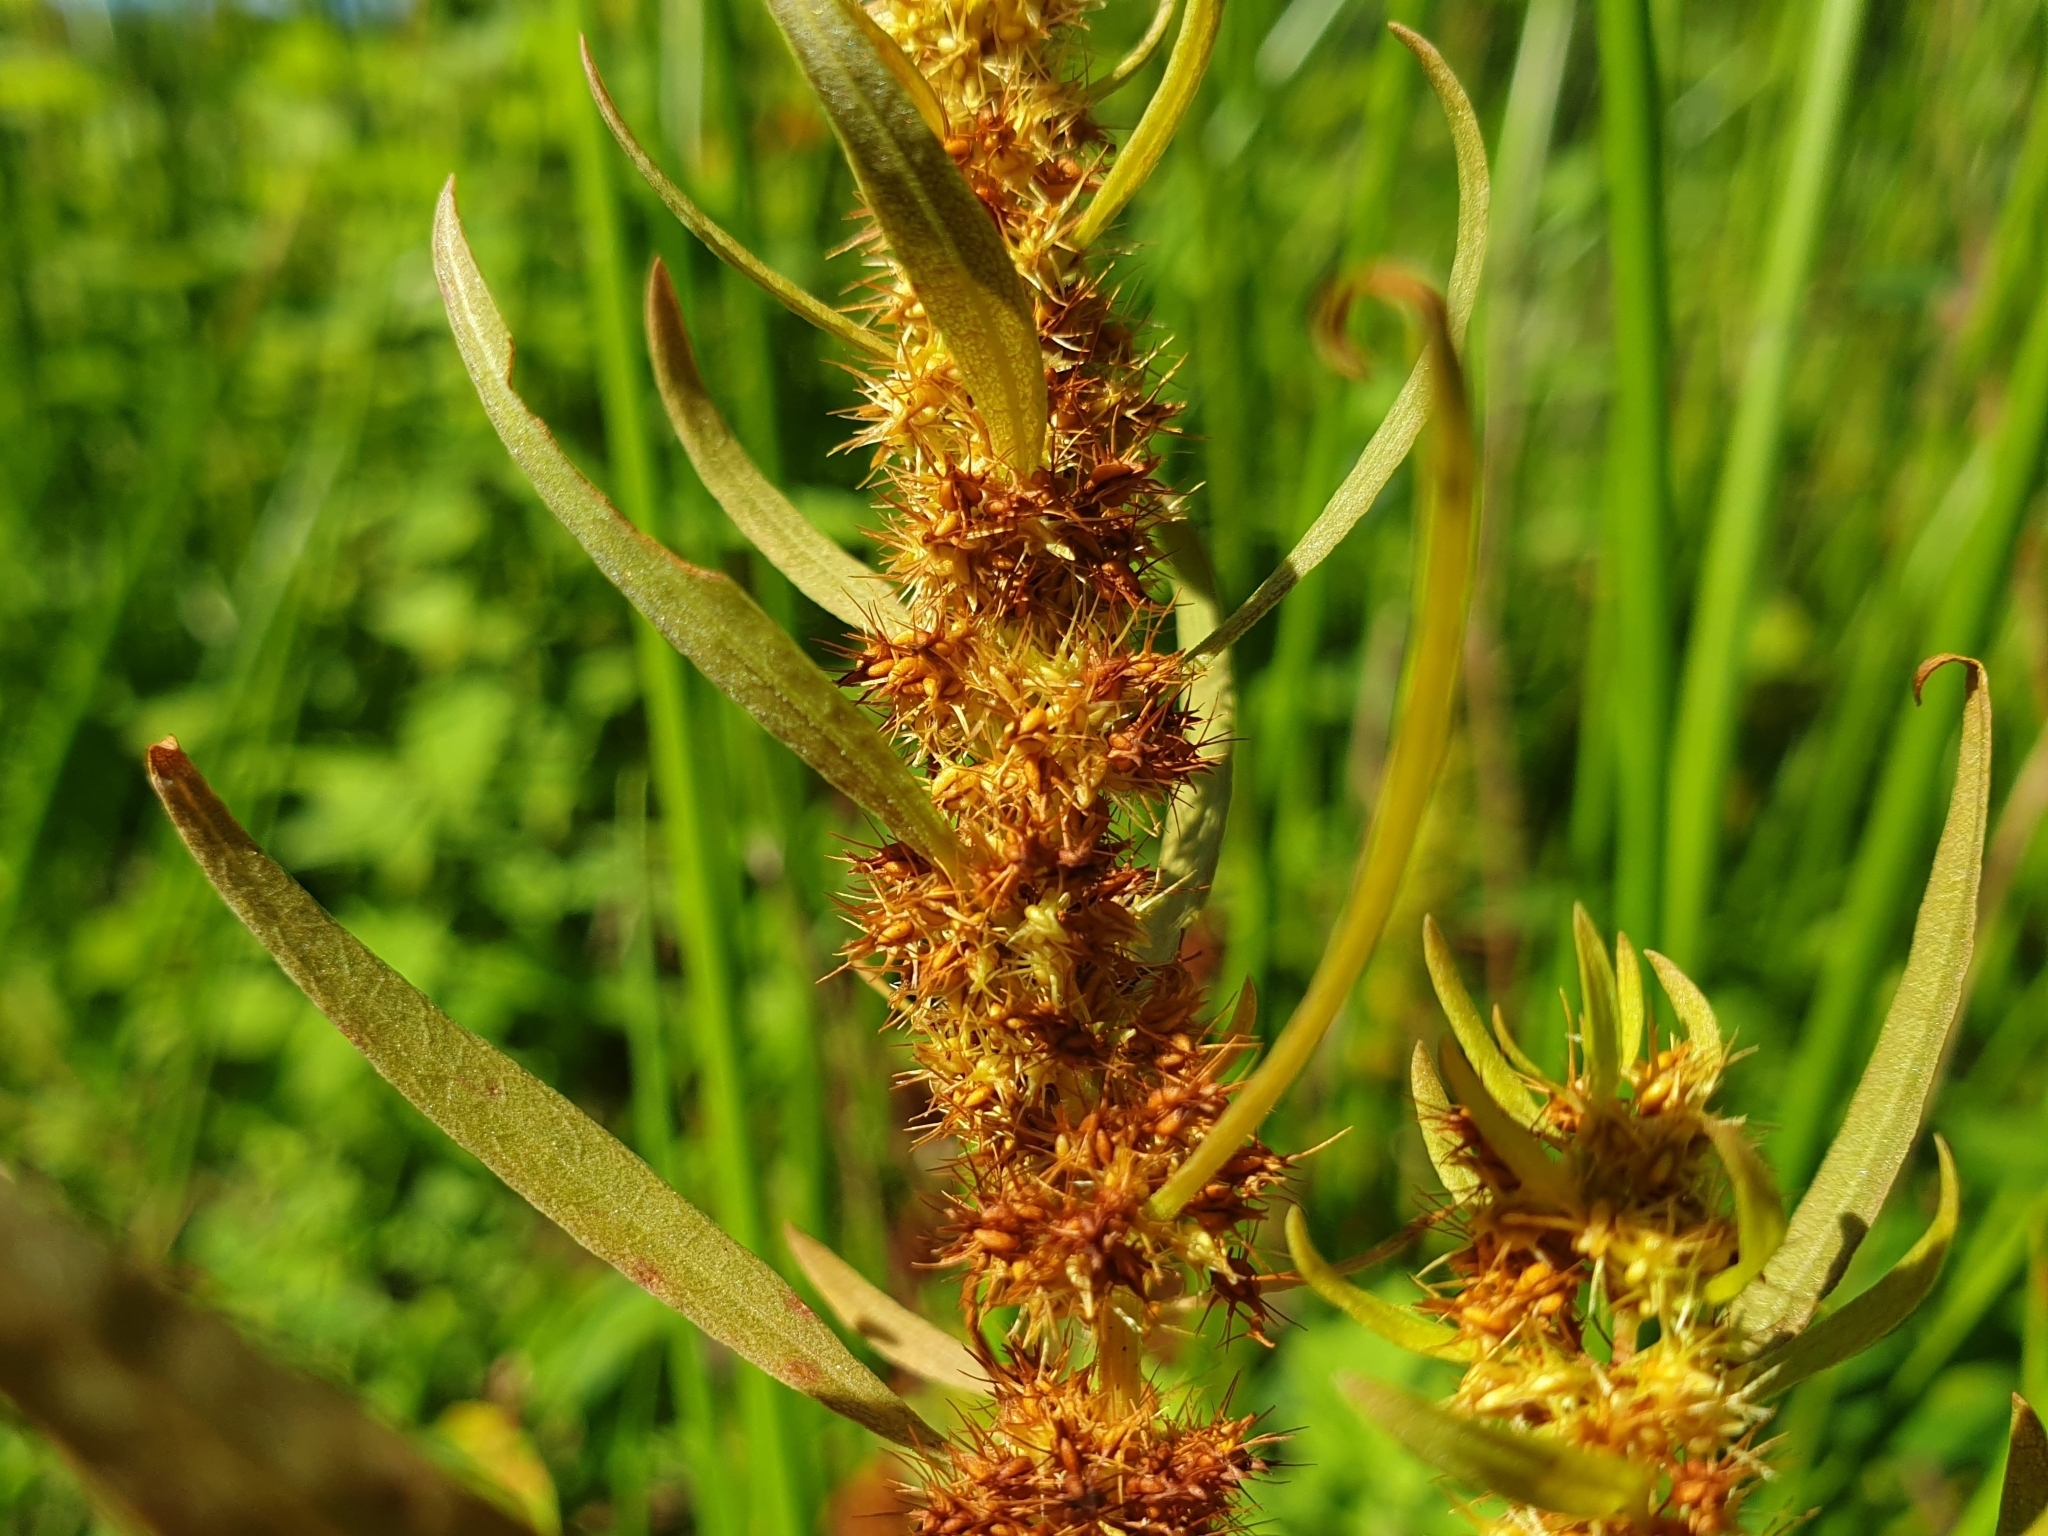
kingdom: Plantae
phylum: Tracheophyta
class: Magnoliopsida
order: Caryophyllales
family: Polygonaceae
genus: Rumex
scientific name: Rumex maritimus
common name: Golden dock
